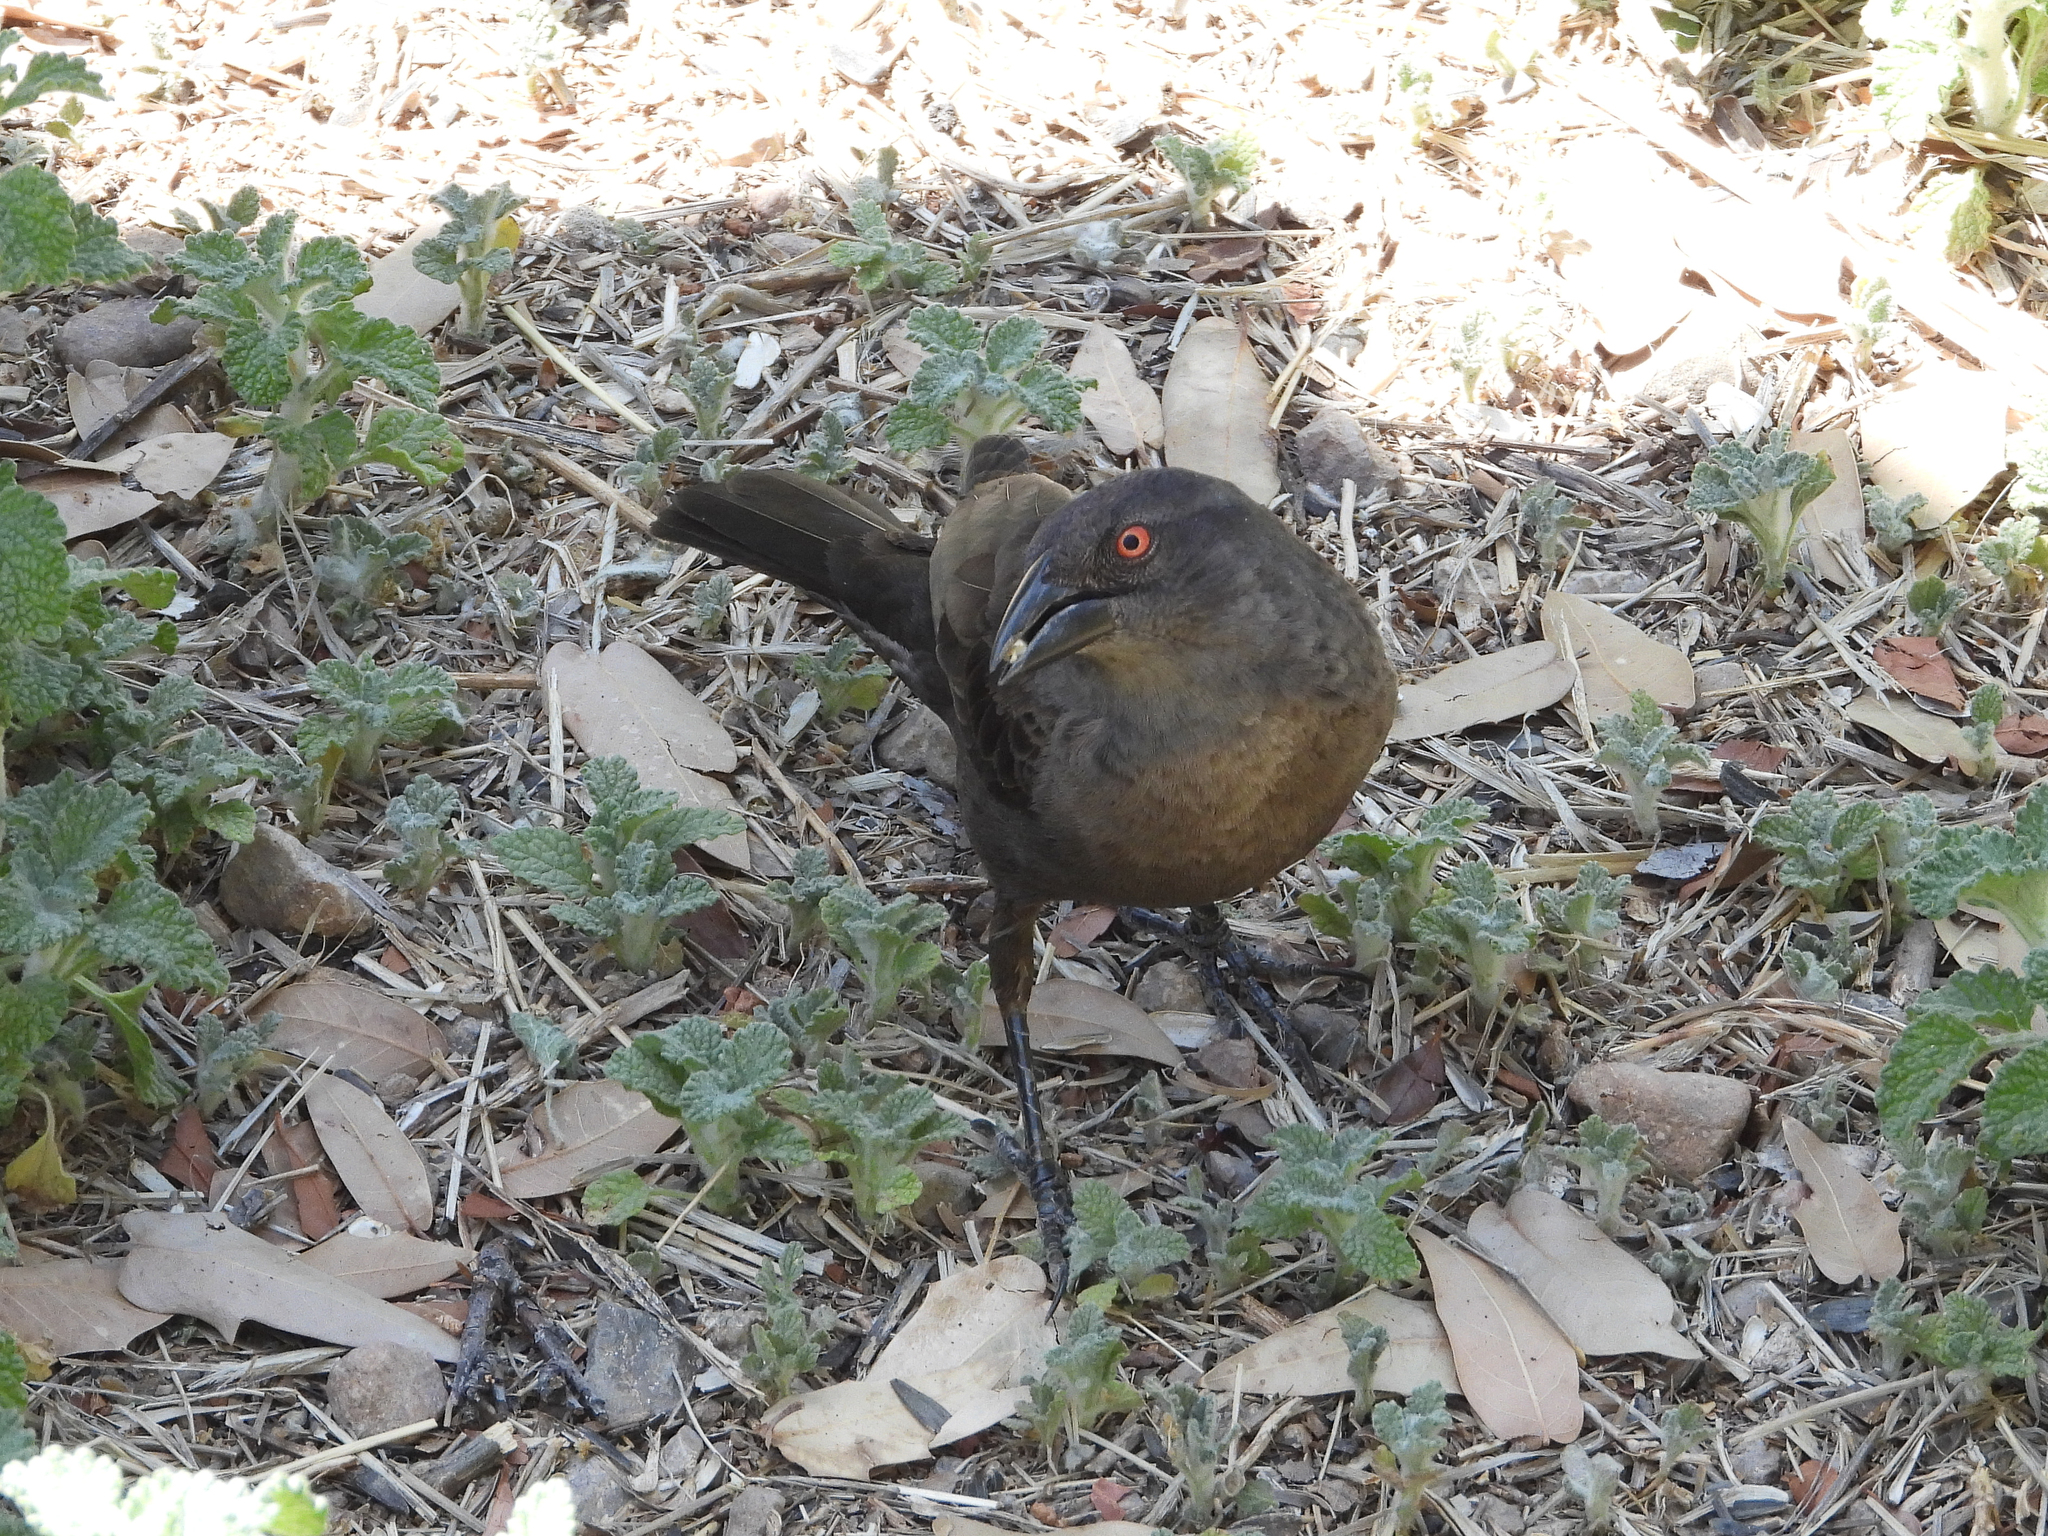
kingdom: Animalia
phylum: Chordata
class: Aves
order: Passeriformes
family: Icteridae
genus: Molothrus
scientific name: Molothrus aeneus
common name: Bronzed cowbird
